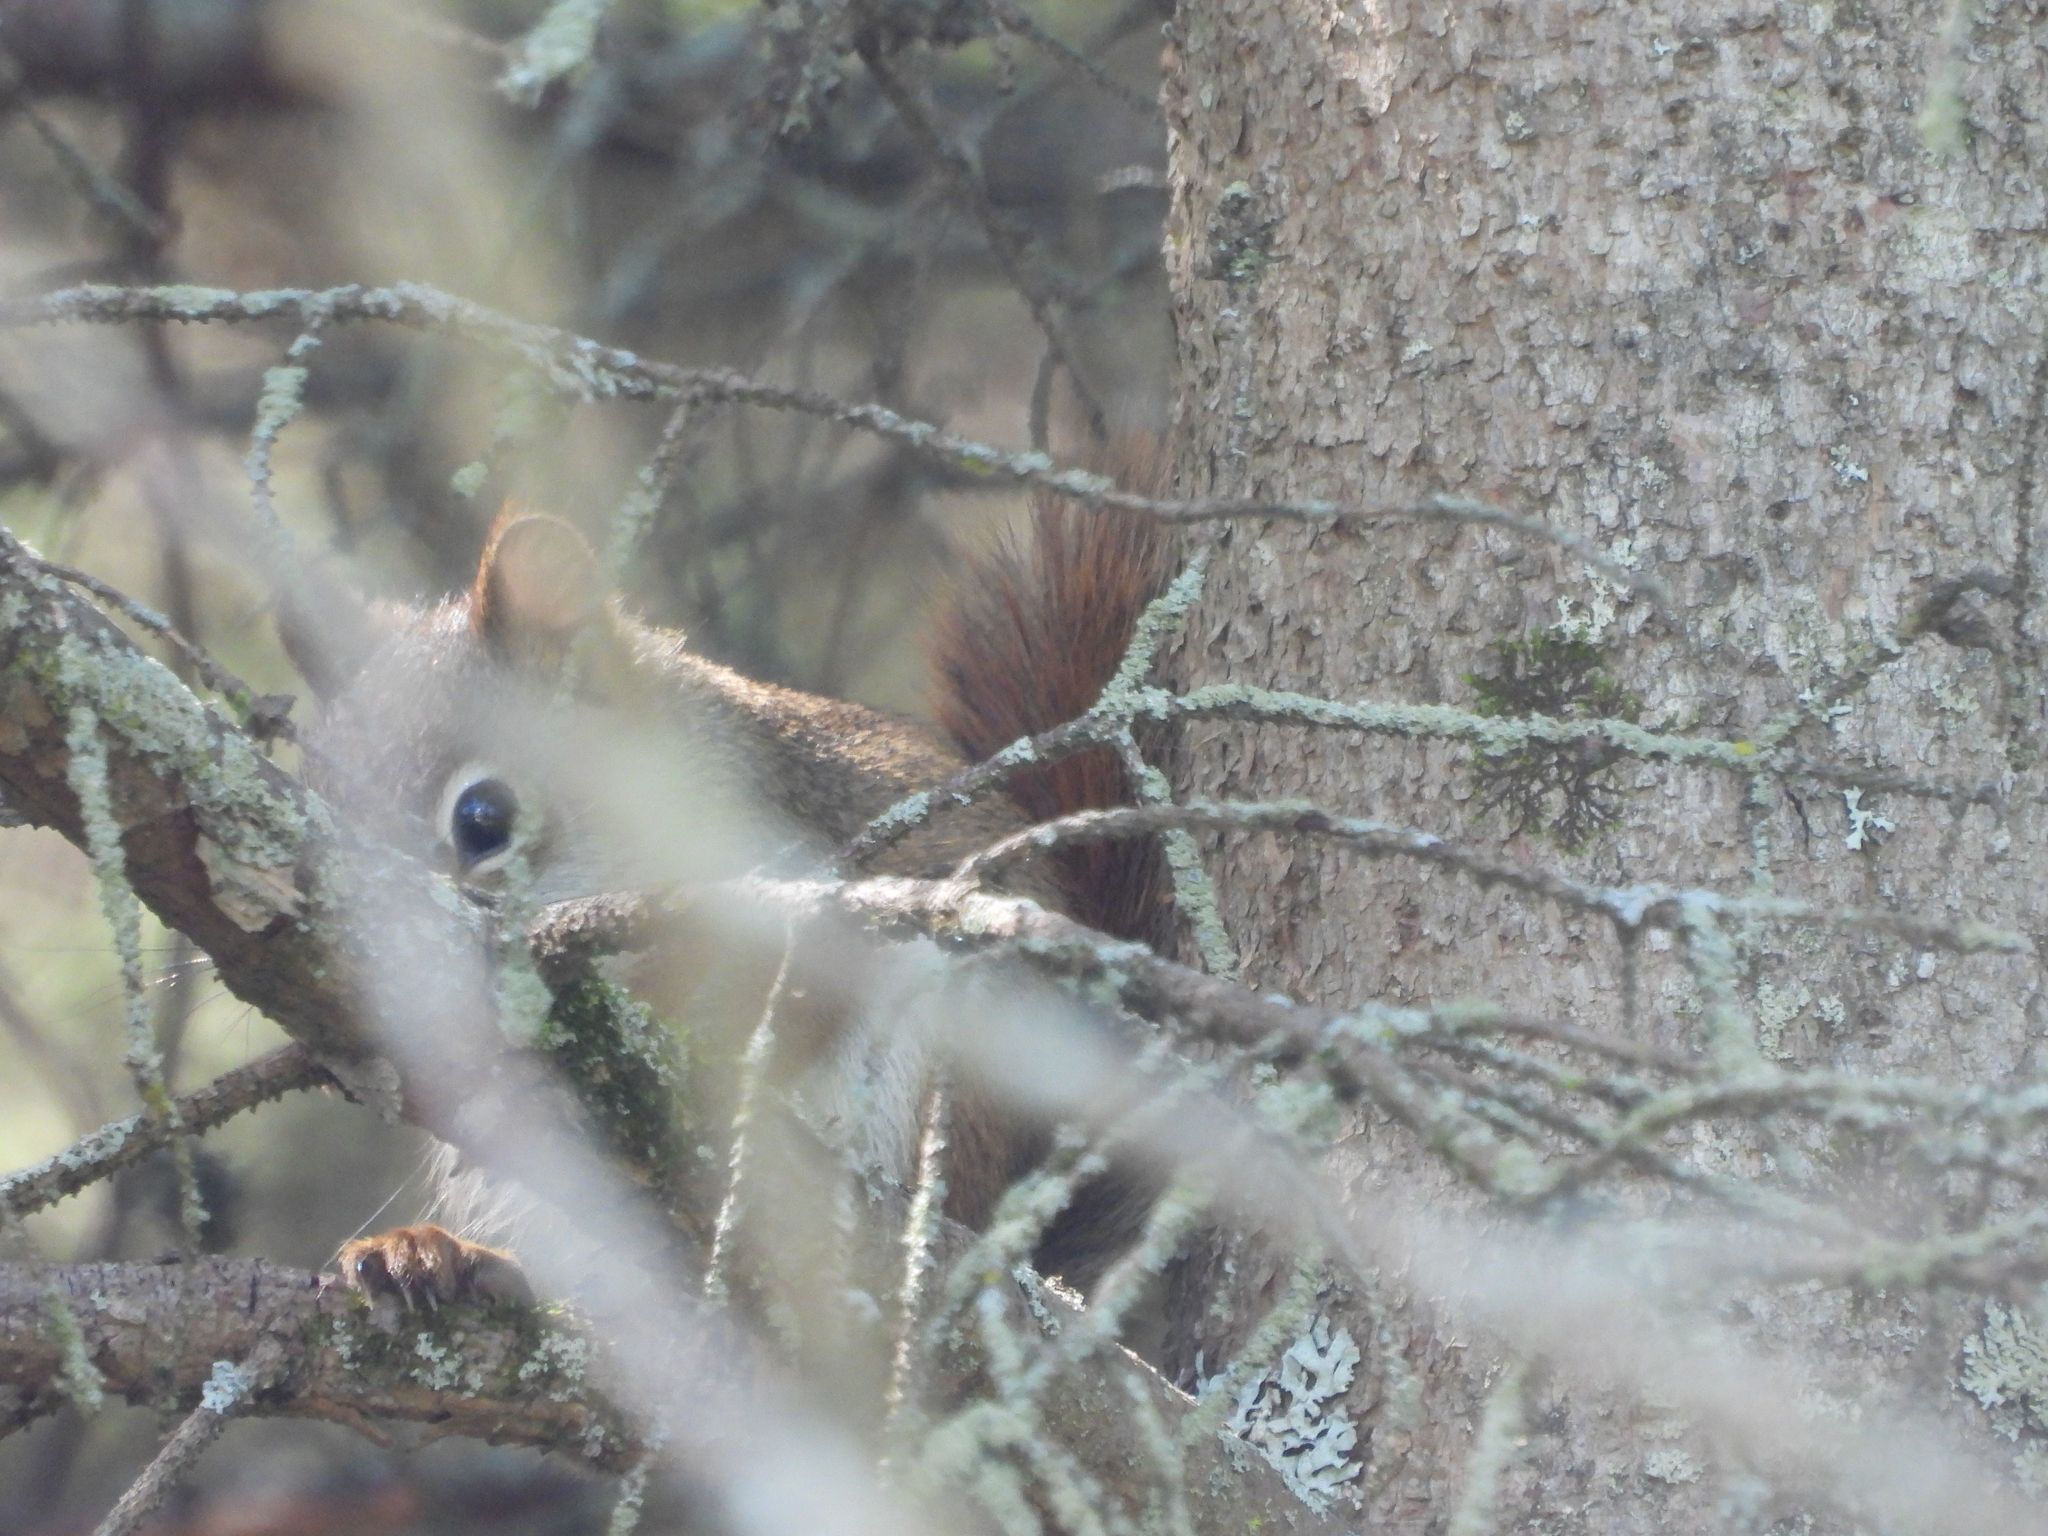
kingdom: Animalia
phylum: Chordata
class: Mammalia
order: Rodentia
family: Sciuridae
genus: Tamiasciurus
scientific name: Tamiasciurus hudsonicus
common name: Red squirrel
